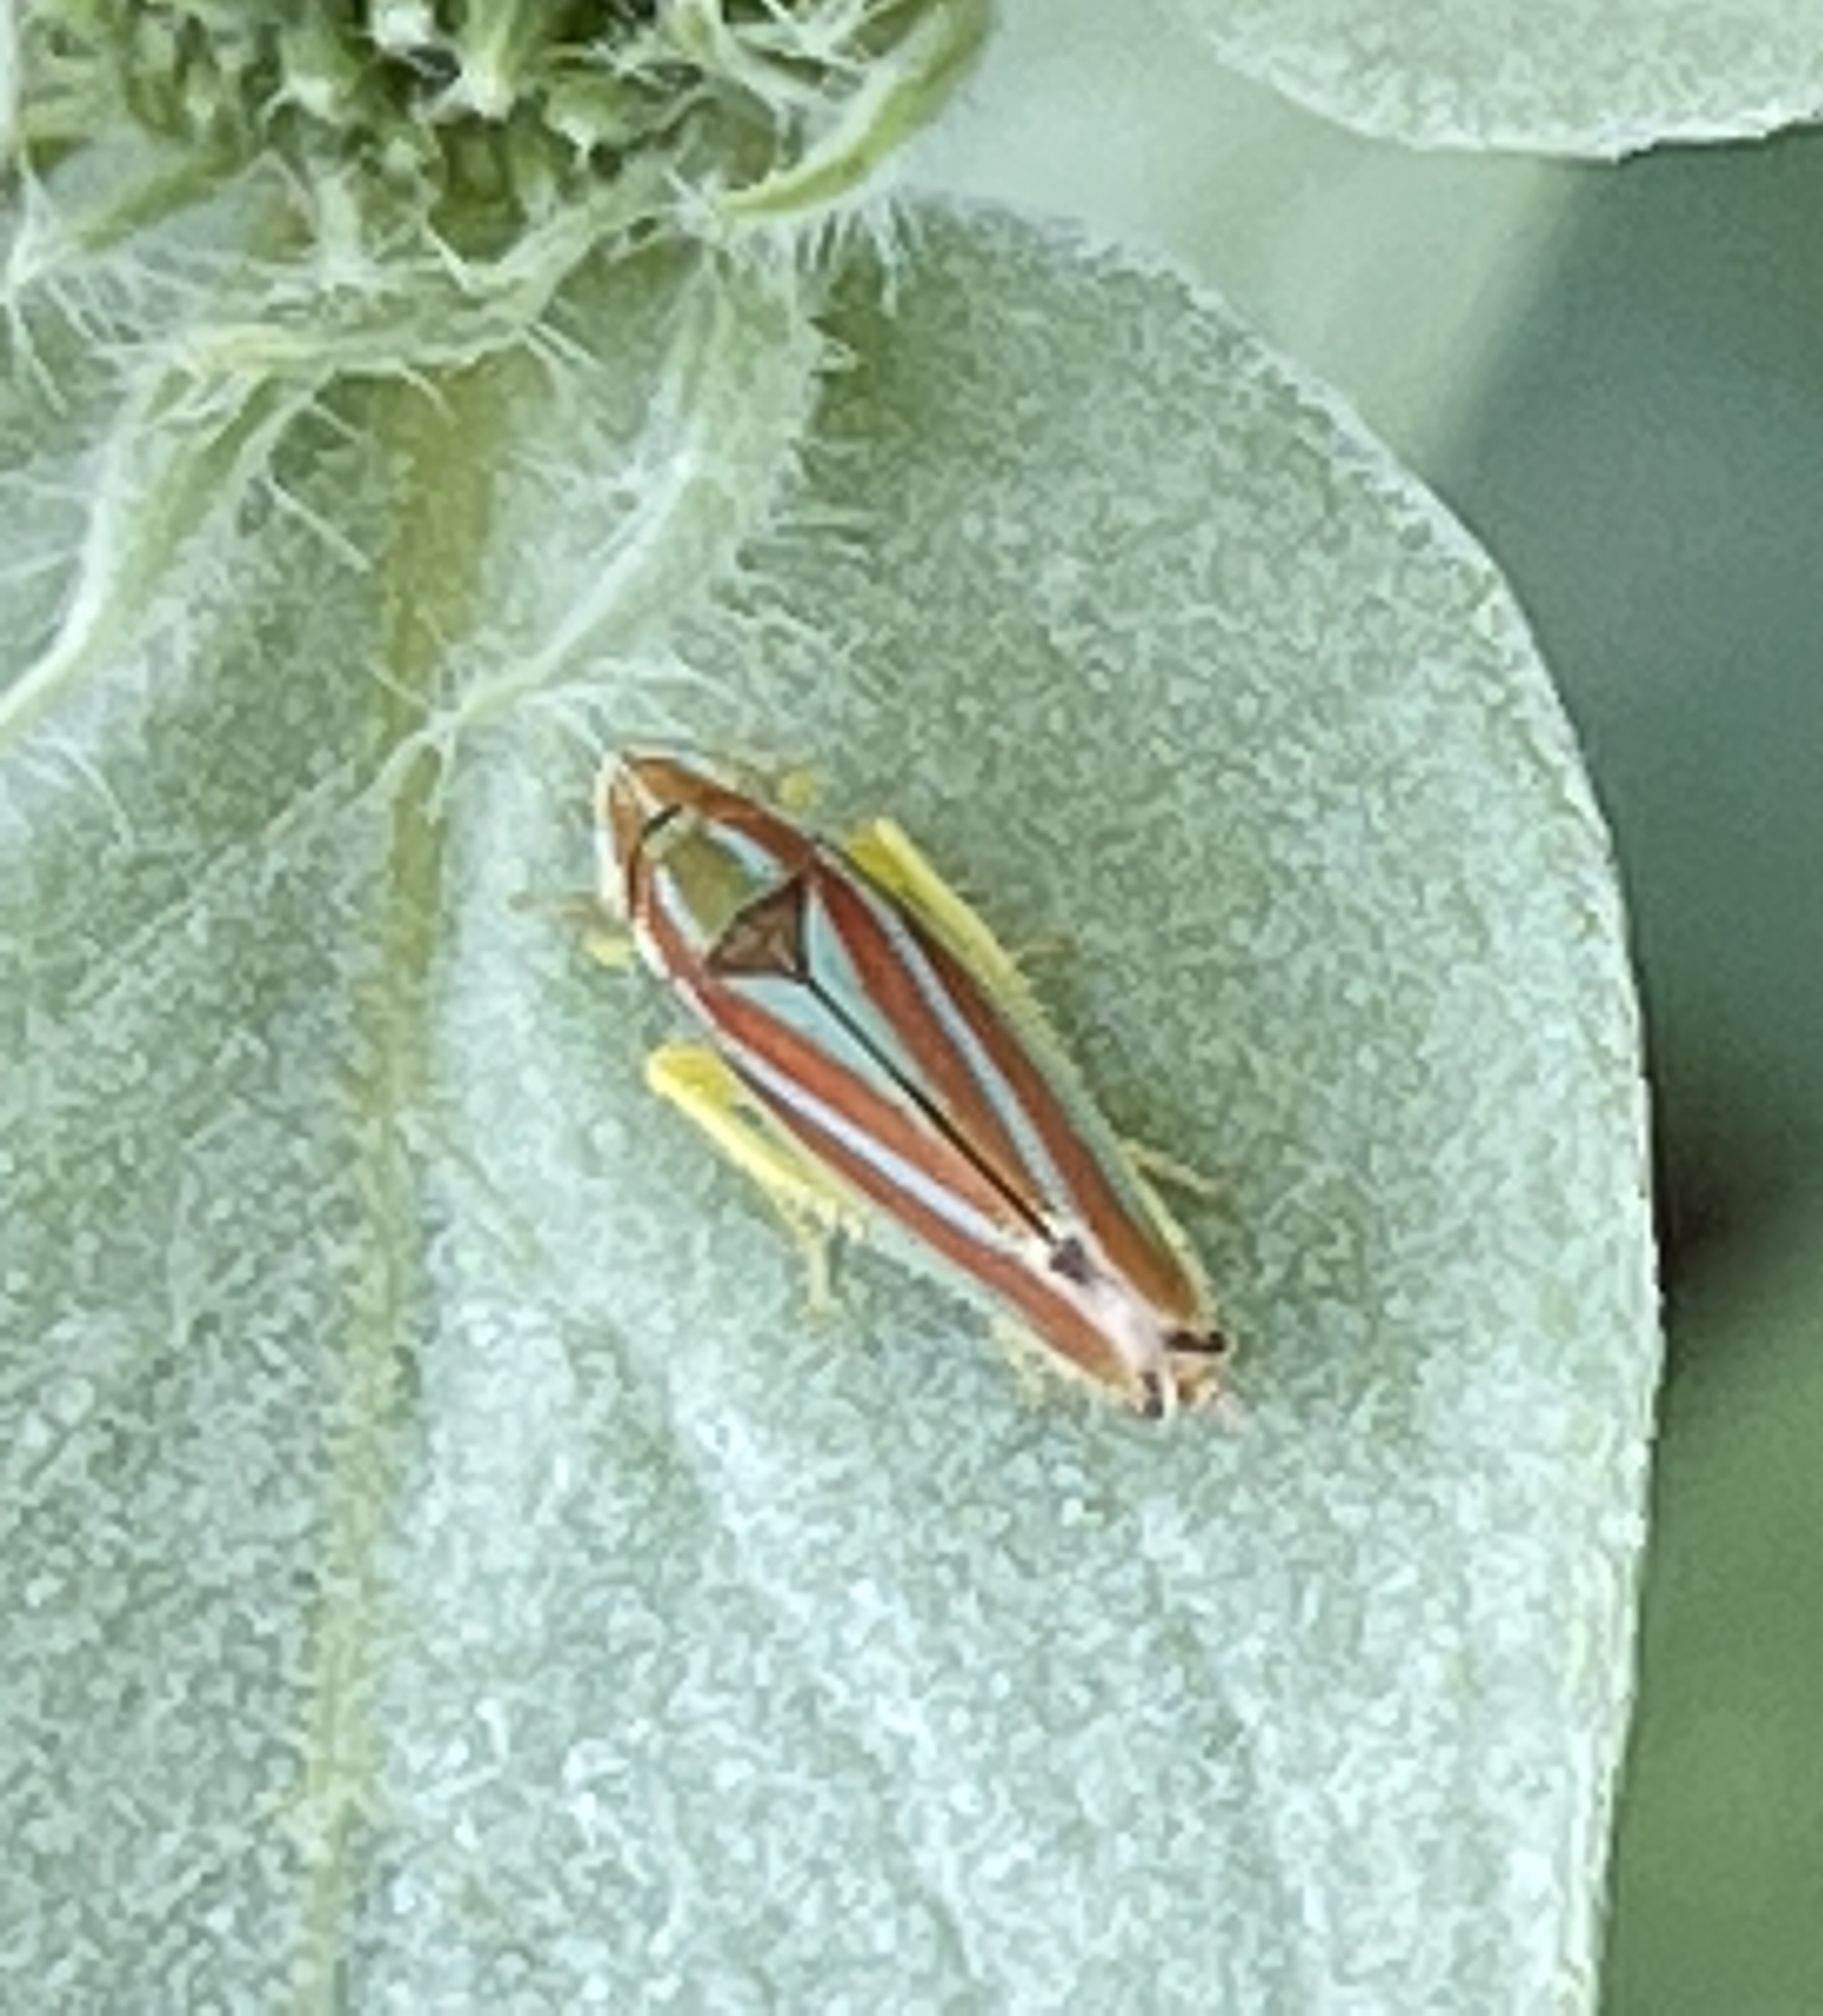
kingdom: Animalia
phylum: Arthropoda
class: Insecta
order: Hemiptera
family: Cicadellidae
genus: Graphocephala
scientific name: Graphocephala versuta
